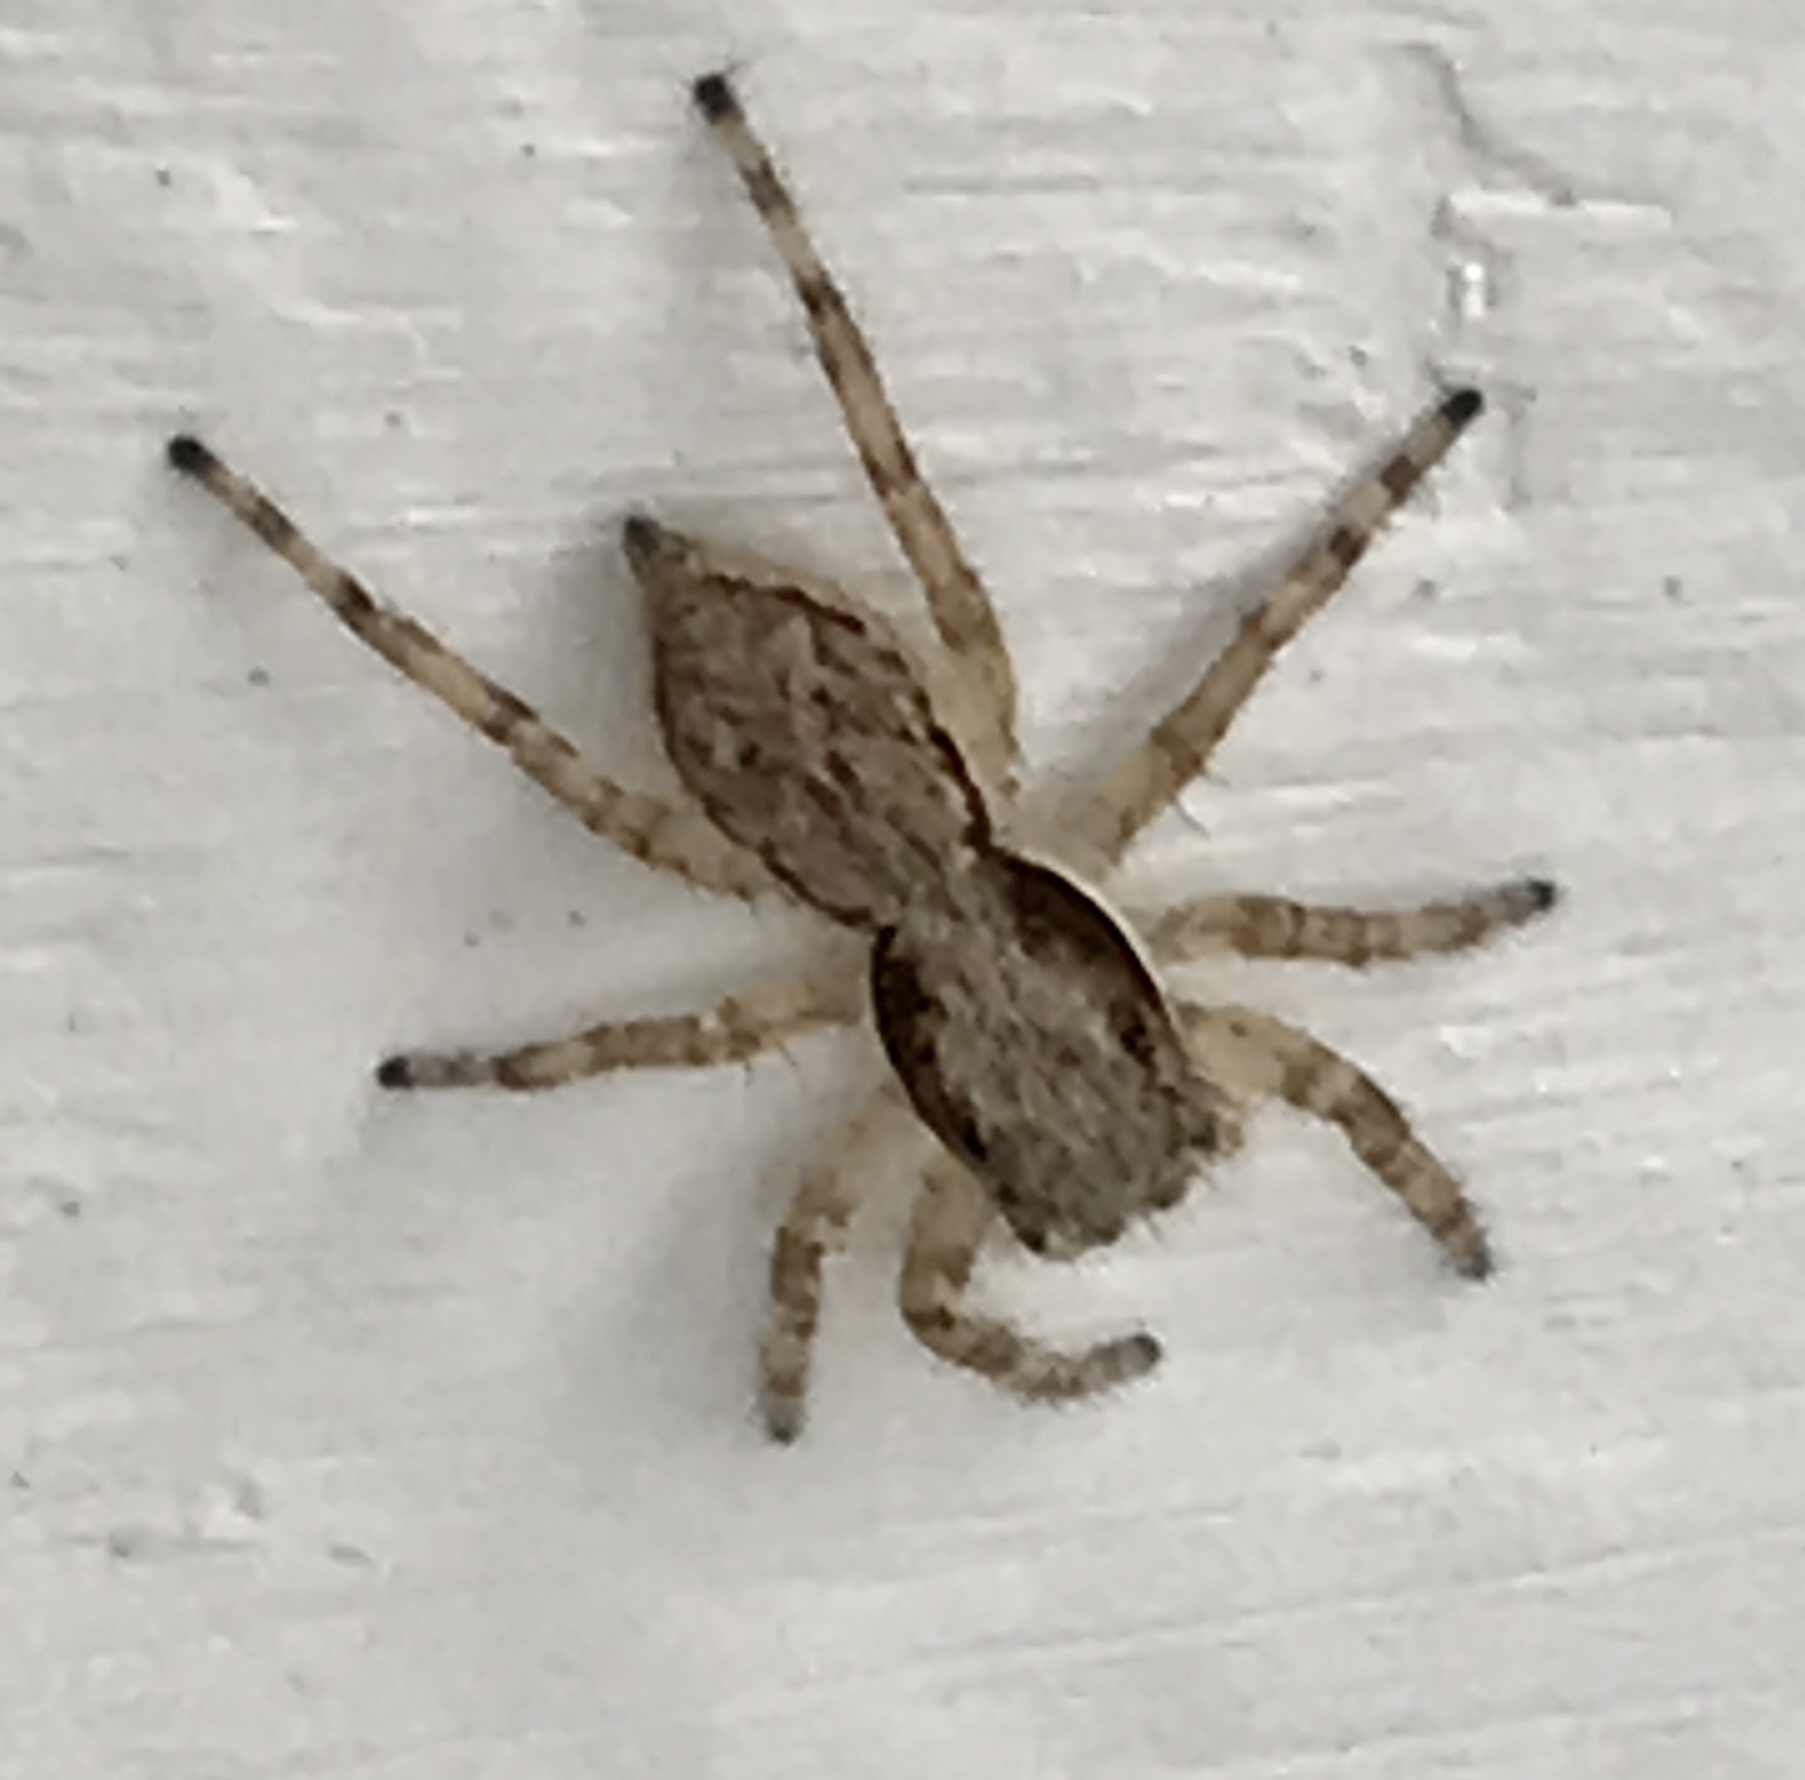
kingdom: Animalia
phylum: Arthropoda
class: Arachnida
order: Araneae
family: Salticidae
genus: Menemerus
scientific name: Menemerus bivittatus
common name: Gray wall jumper
